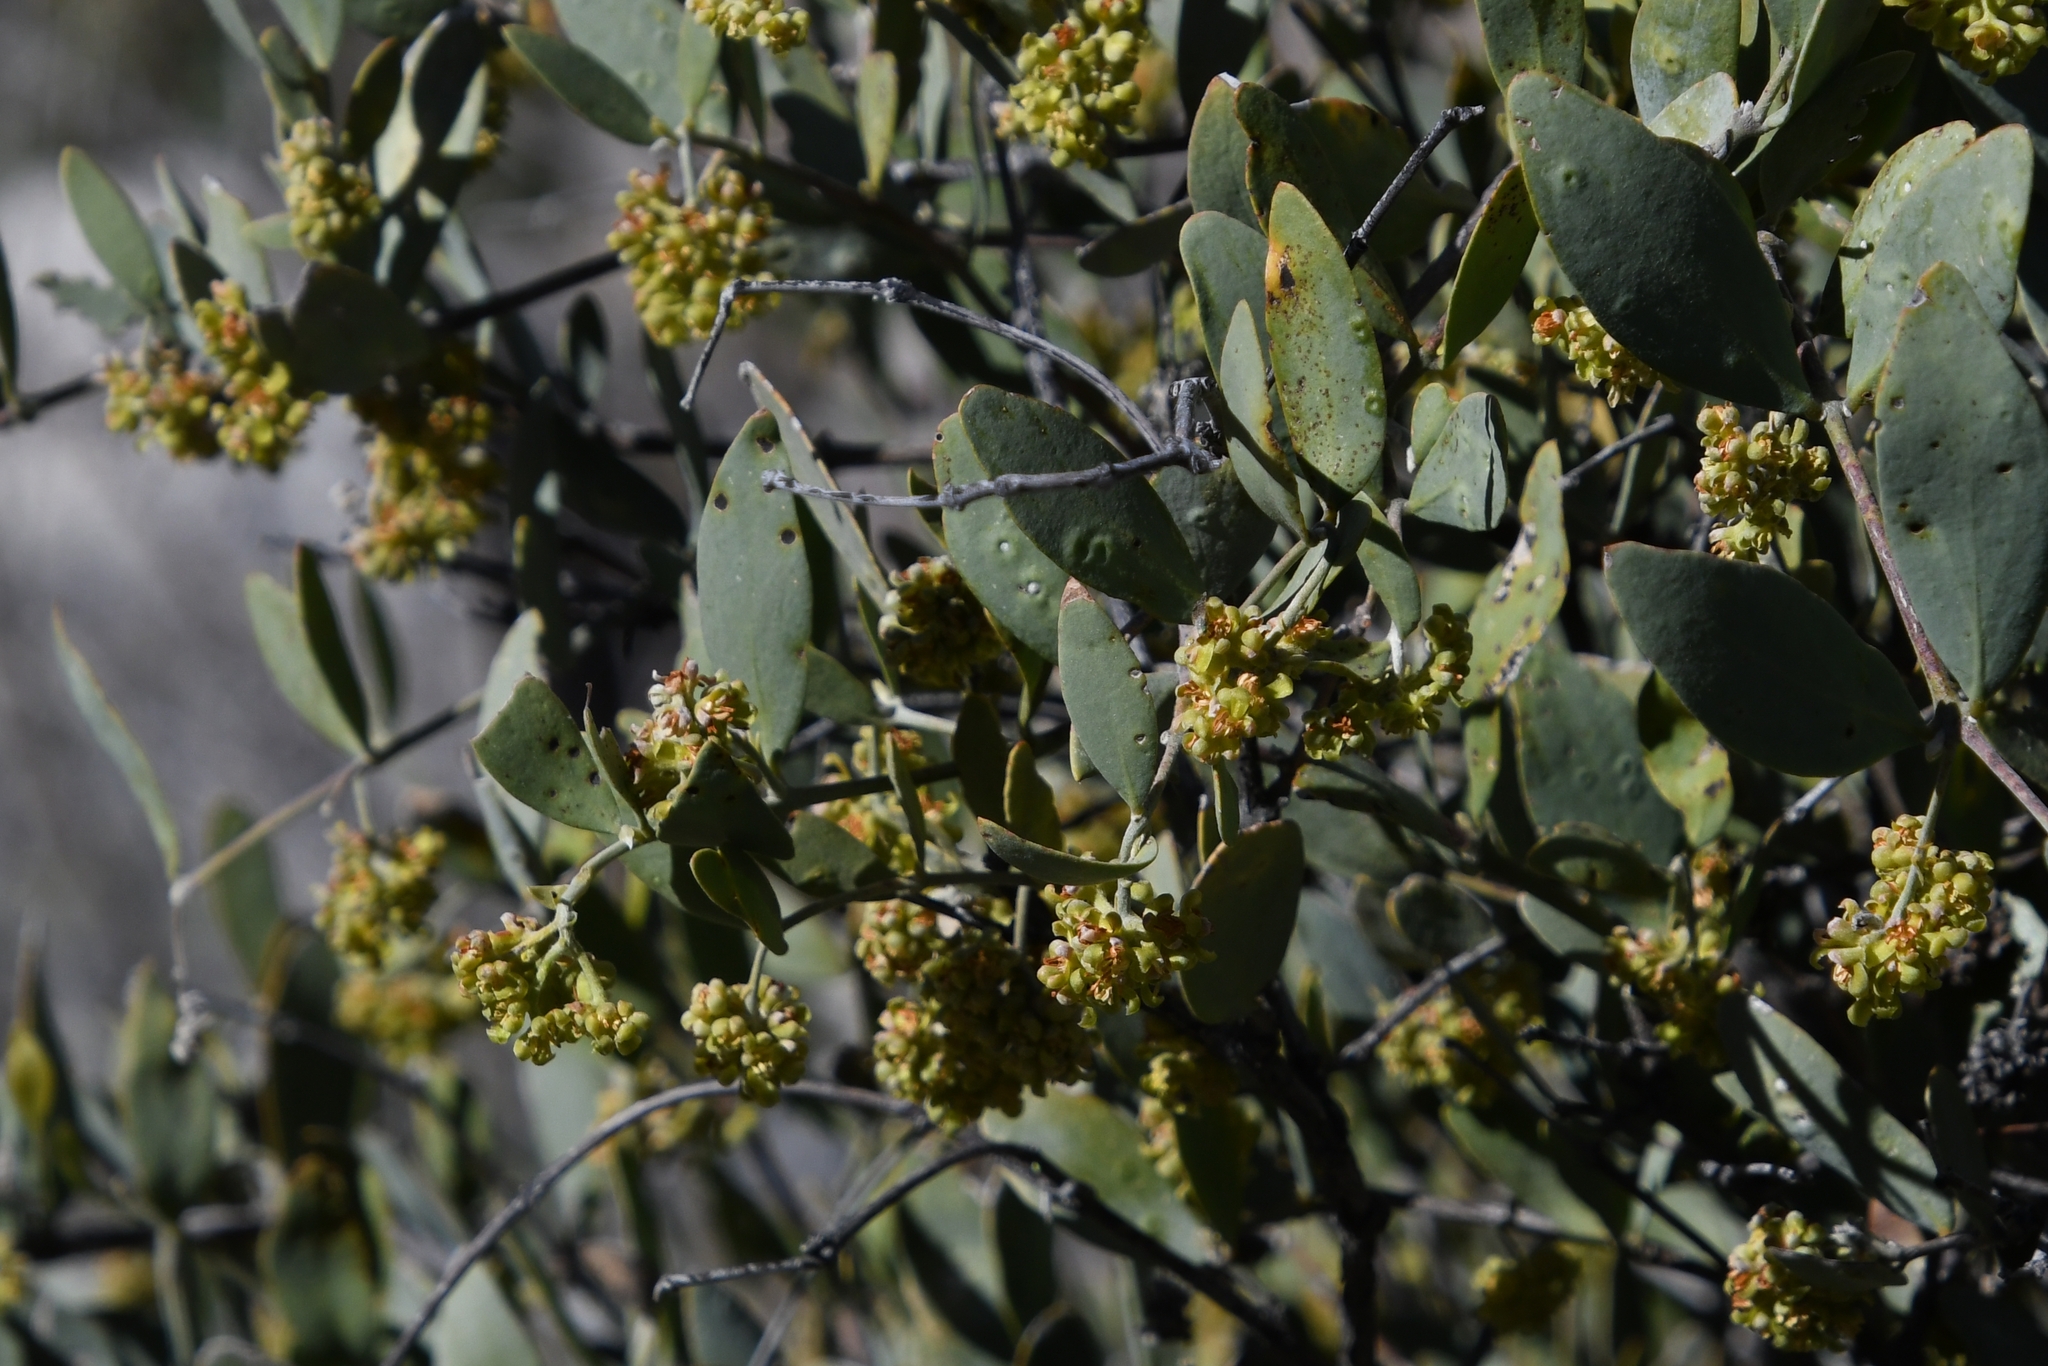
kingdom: Plantae
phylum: Tracheophyta
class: Magnoliopsida
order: Caryophyllales
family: Simmondsiaceae
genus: Simmondsia
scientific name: Simmondsia chinensis
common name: Jojoba
